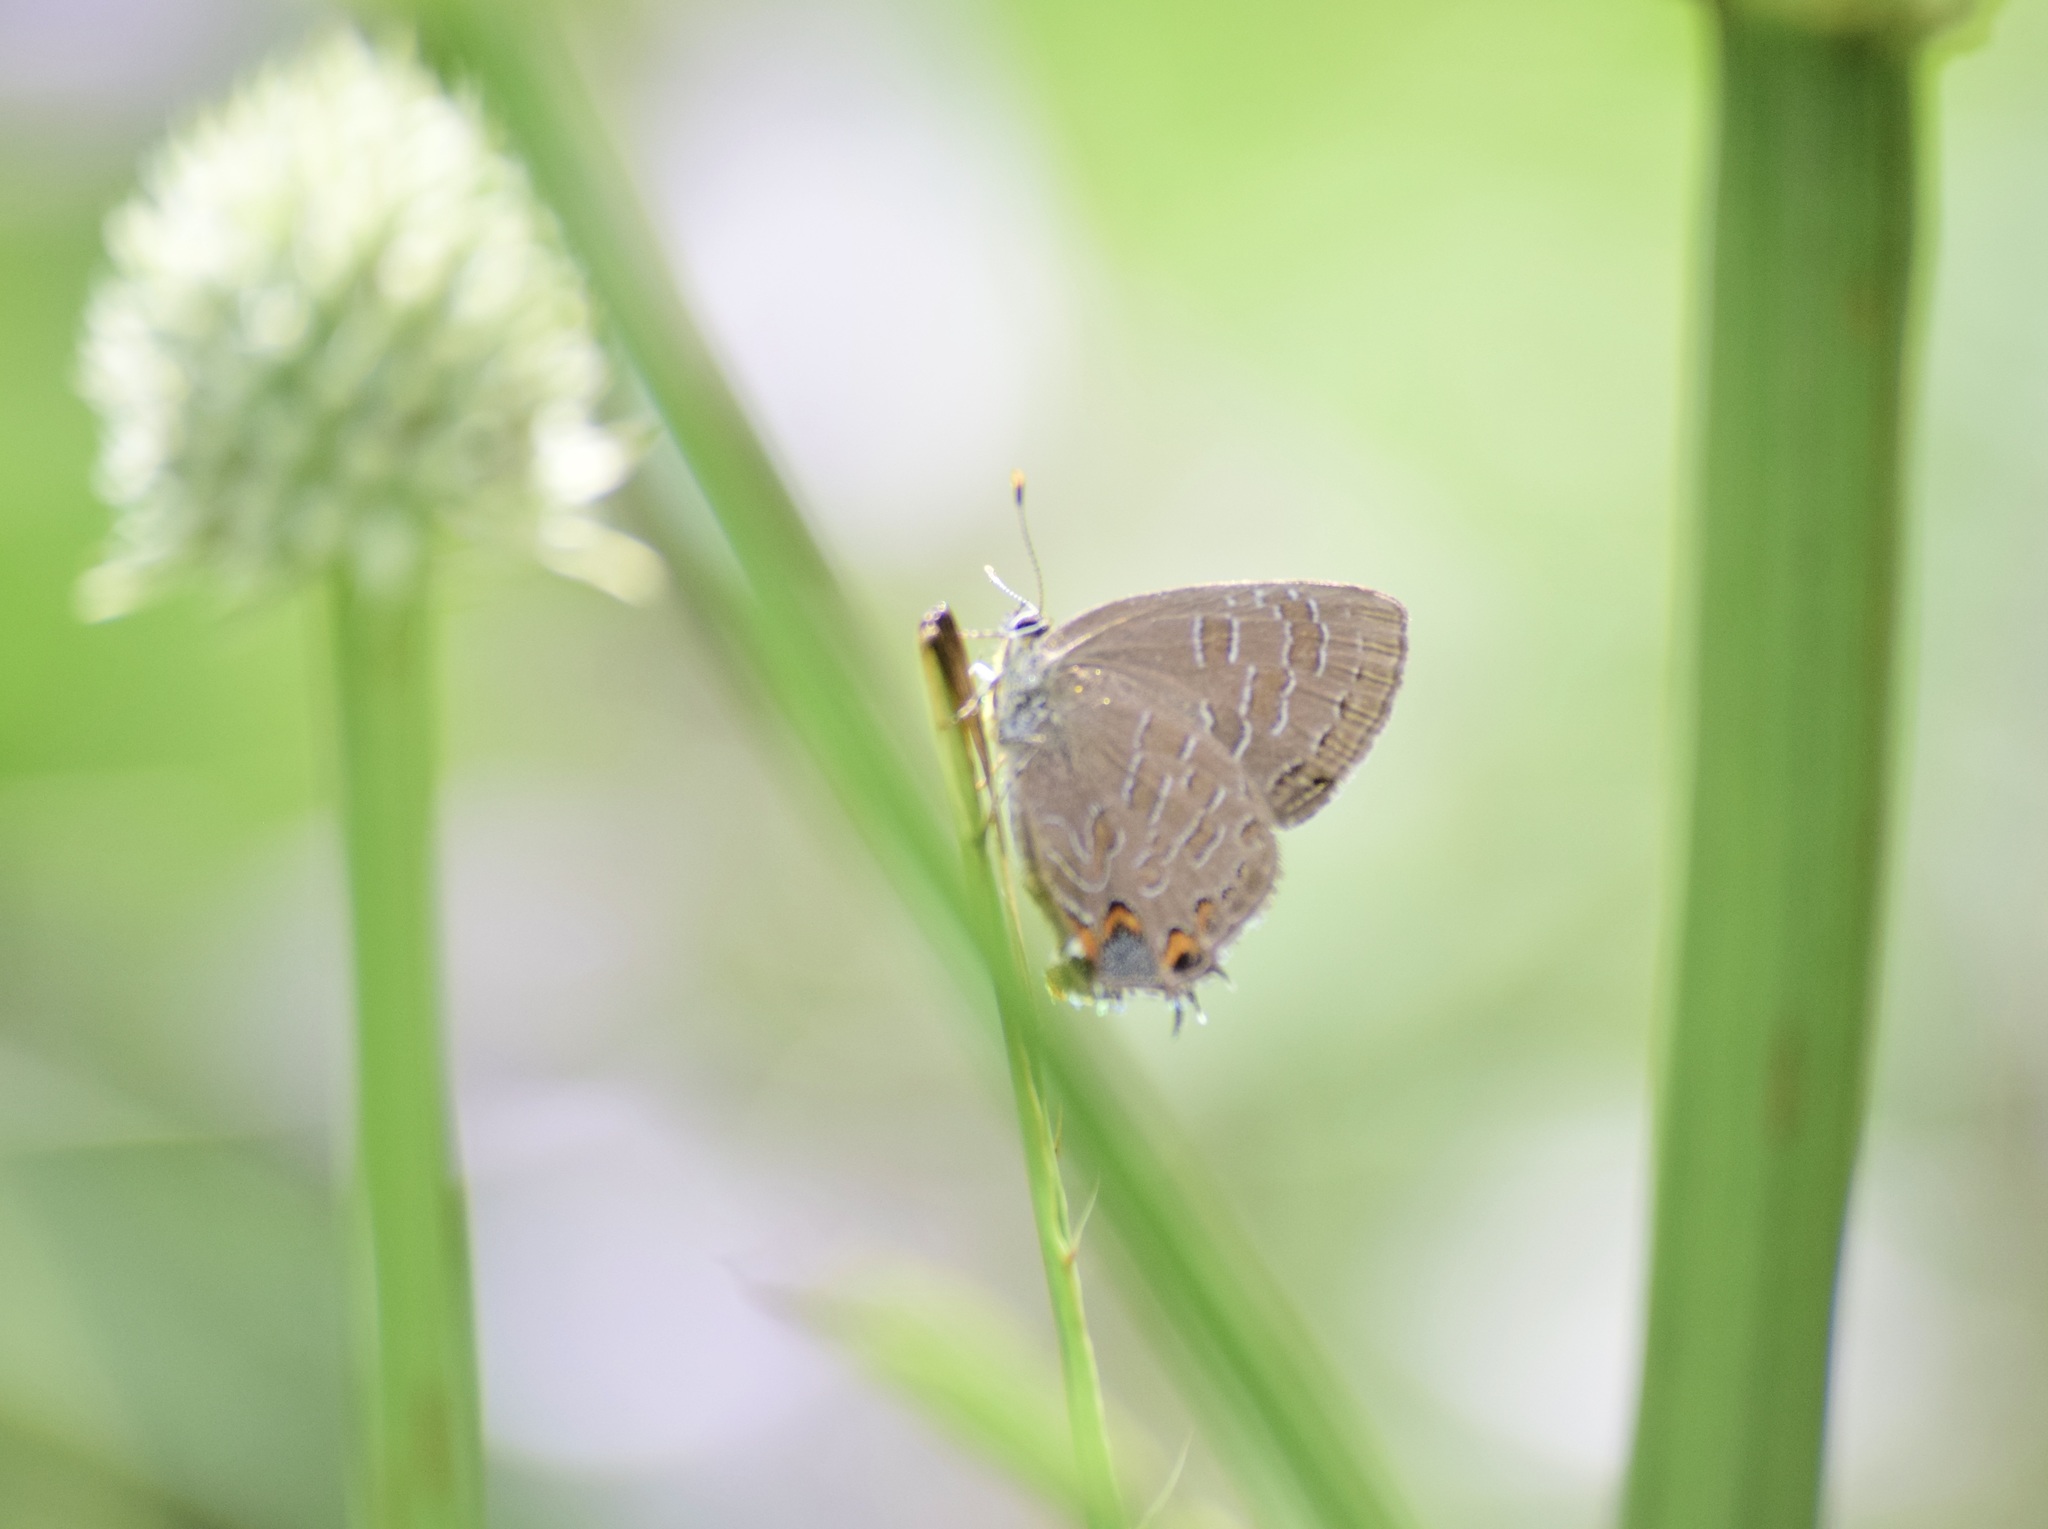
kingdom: Animalia
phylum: Arthropoda
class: Insecta
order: Lepidoptera
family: Lycaenidae
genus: Satyrium
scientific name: Satyrium liparops
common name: Striped hairstreak
